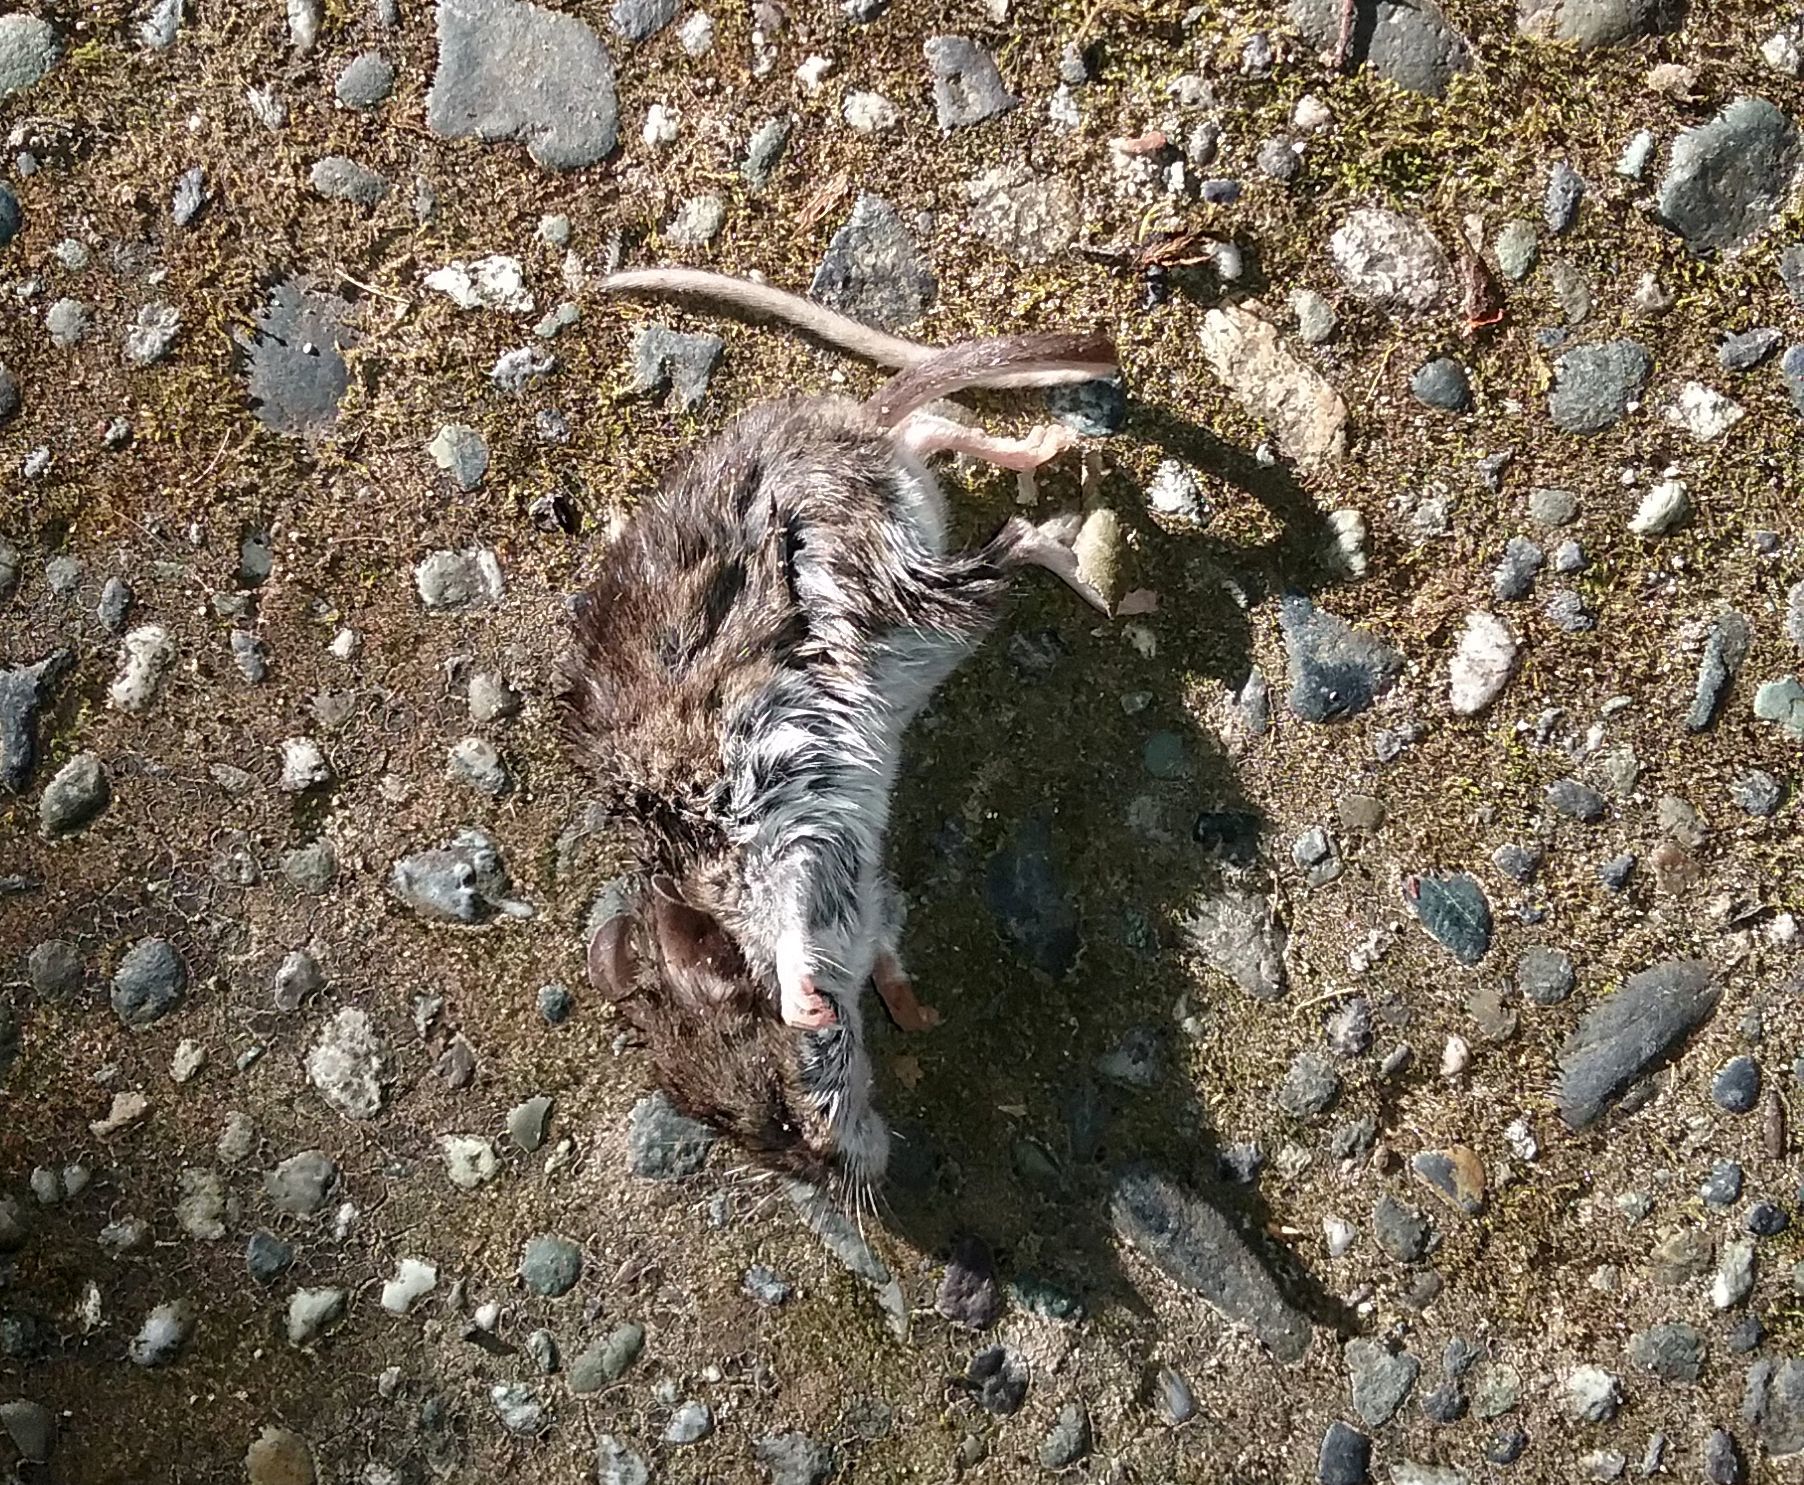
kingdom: Animalia
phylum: Chordata
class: Mammalia
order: Rodentia
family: Cricetidae
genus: Peromyscus
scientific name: Peromyscus maniculatus
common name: Deer mouse
